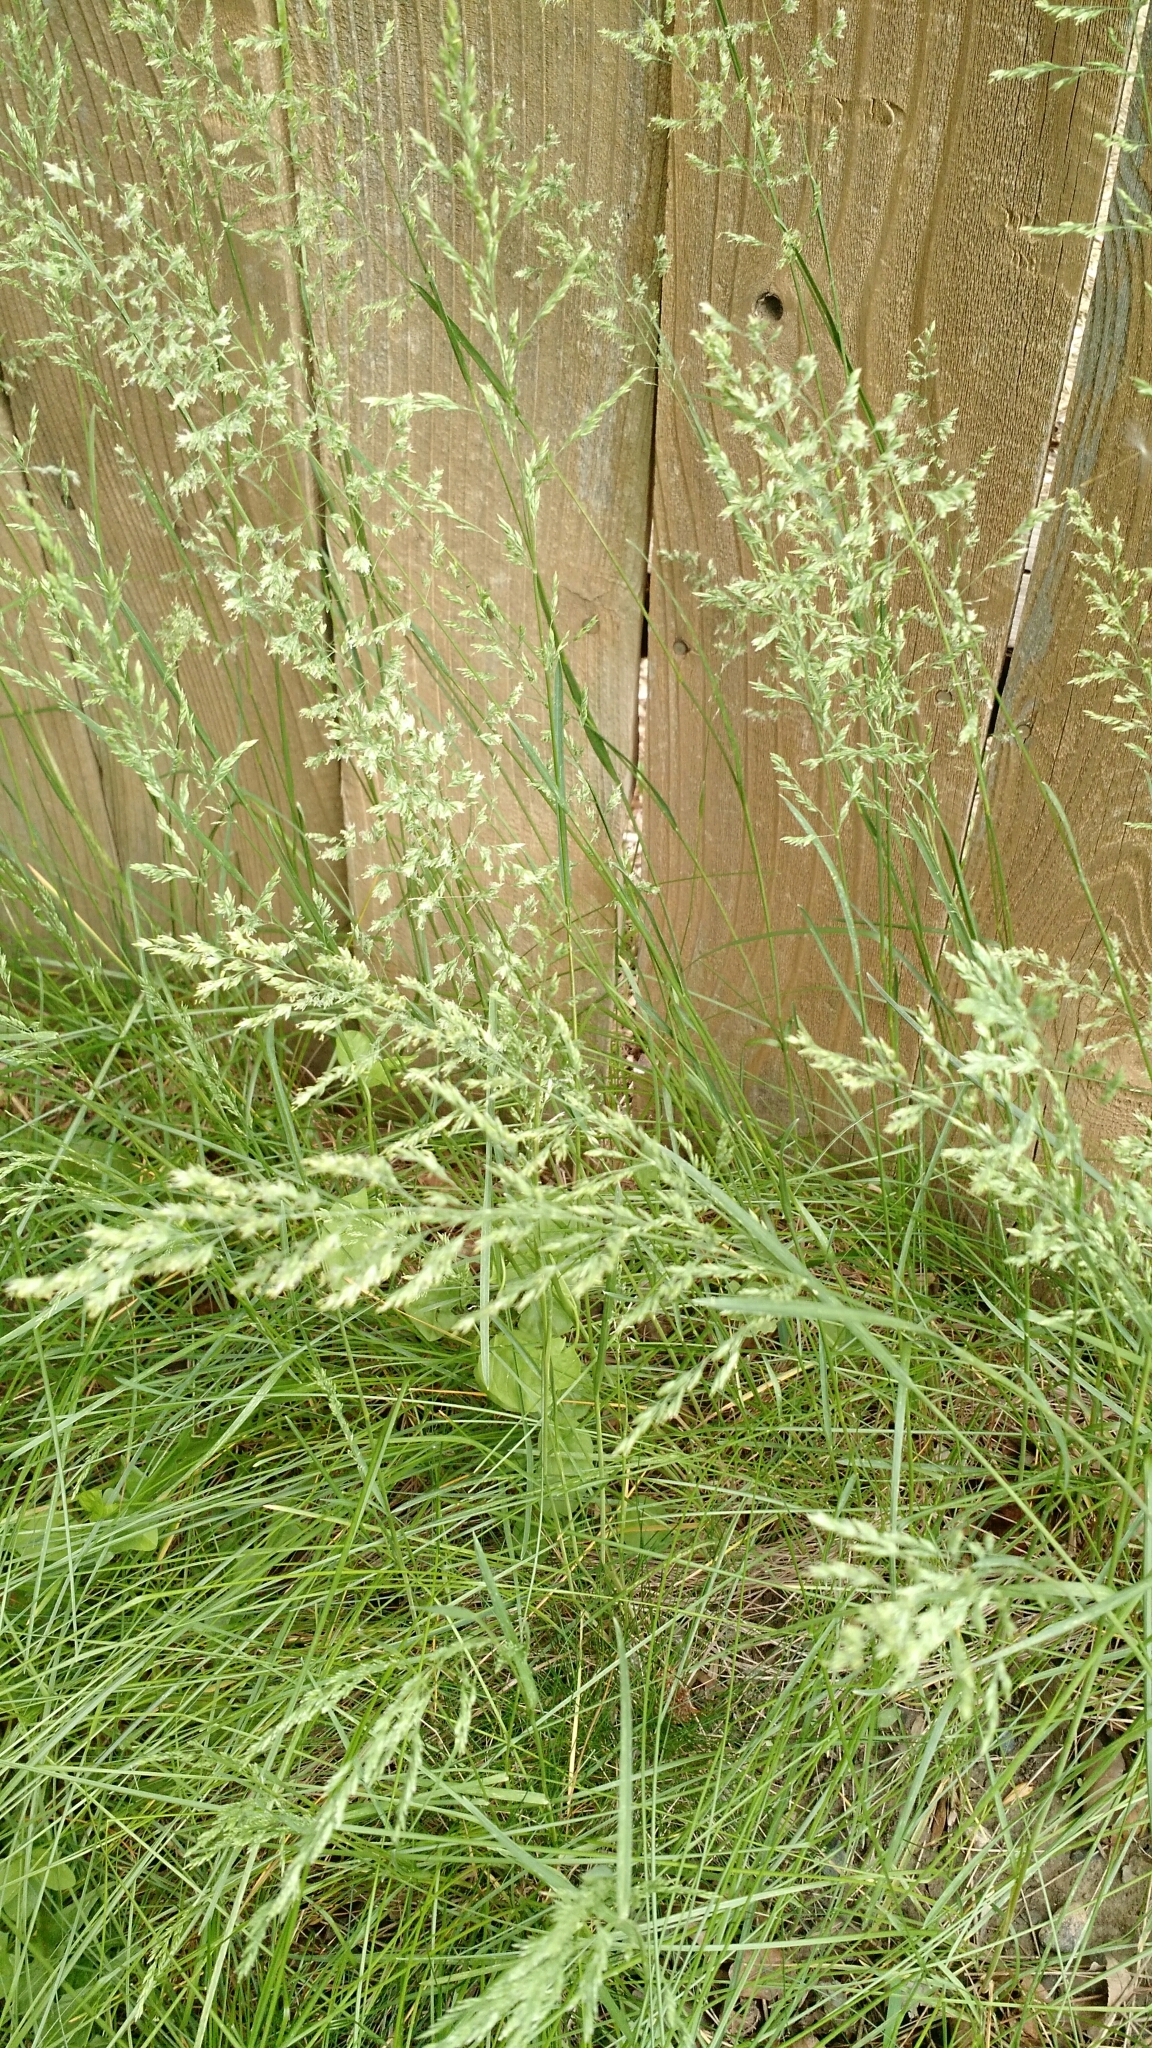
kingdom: Plantae
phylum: Tracheophyta
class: Liliopsida
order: Poales
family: Poaceae
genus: Poa
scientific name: Poa pratensis
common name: Kentucky bluegrass
